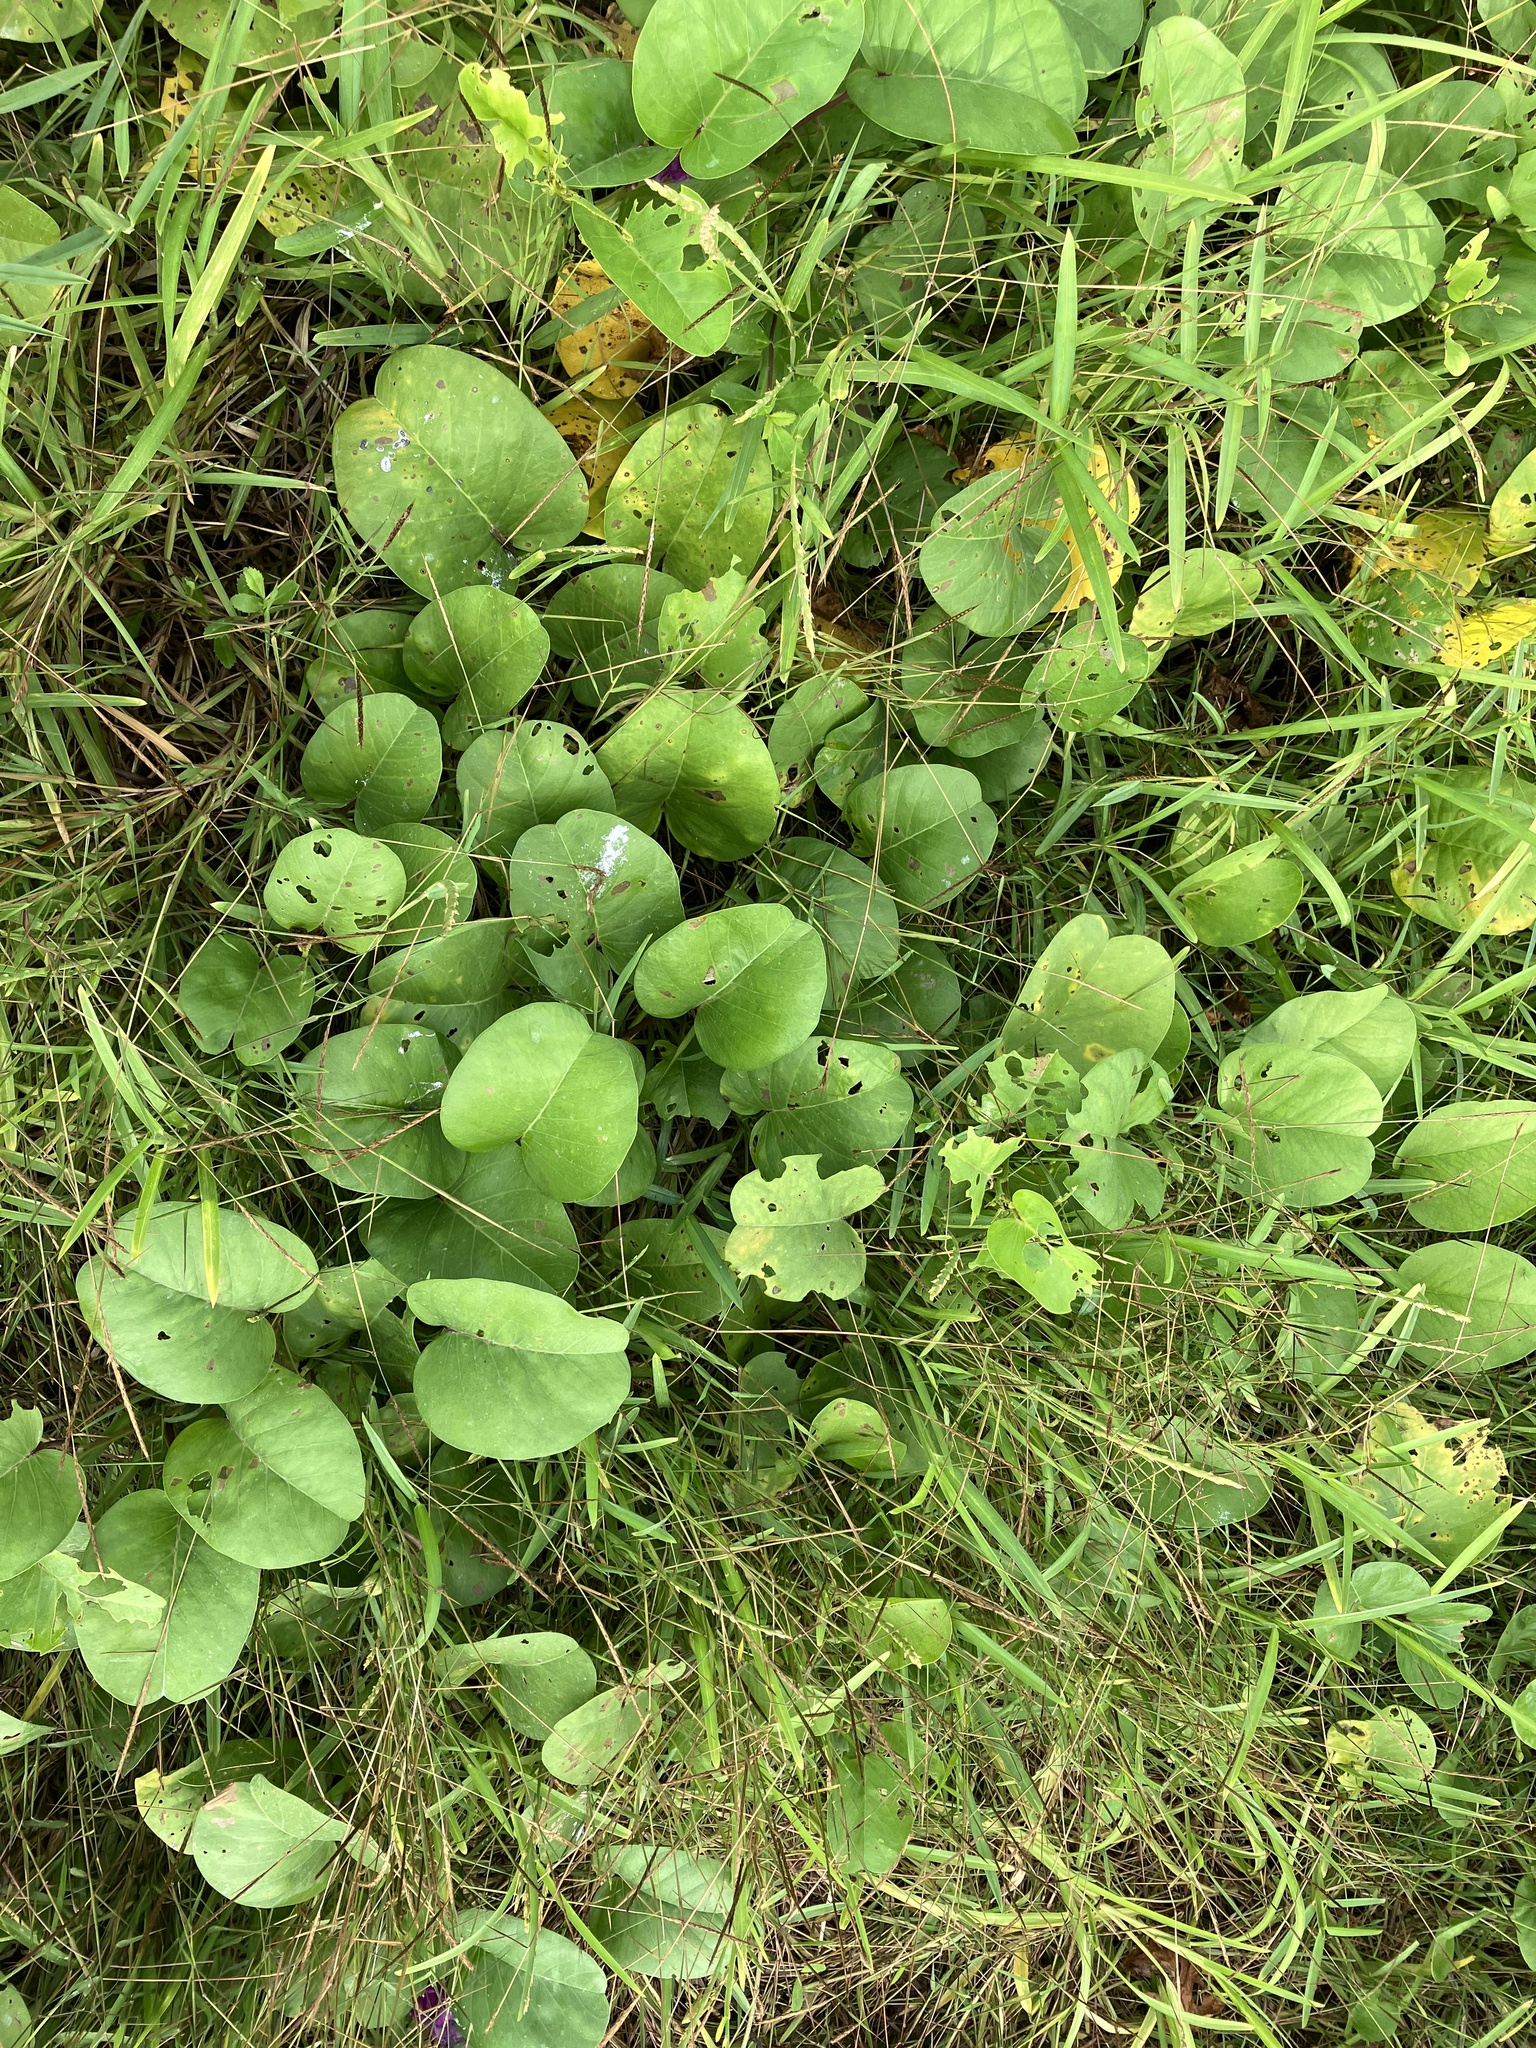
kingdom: Plantae
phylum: Tracheophyta
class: Magnoliopsida
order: Solanales
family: Convolvulaceae
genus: Ipomoea
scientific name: Ipomoea pes-caprae
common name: Beach morning glory
